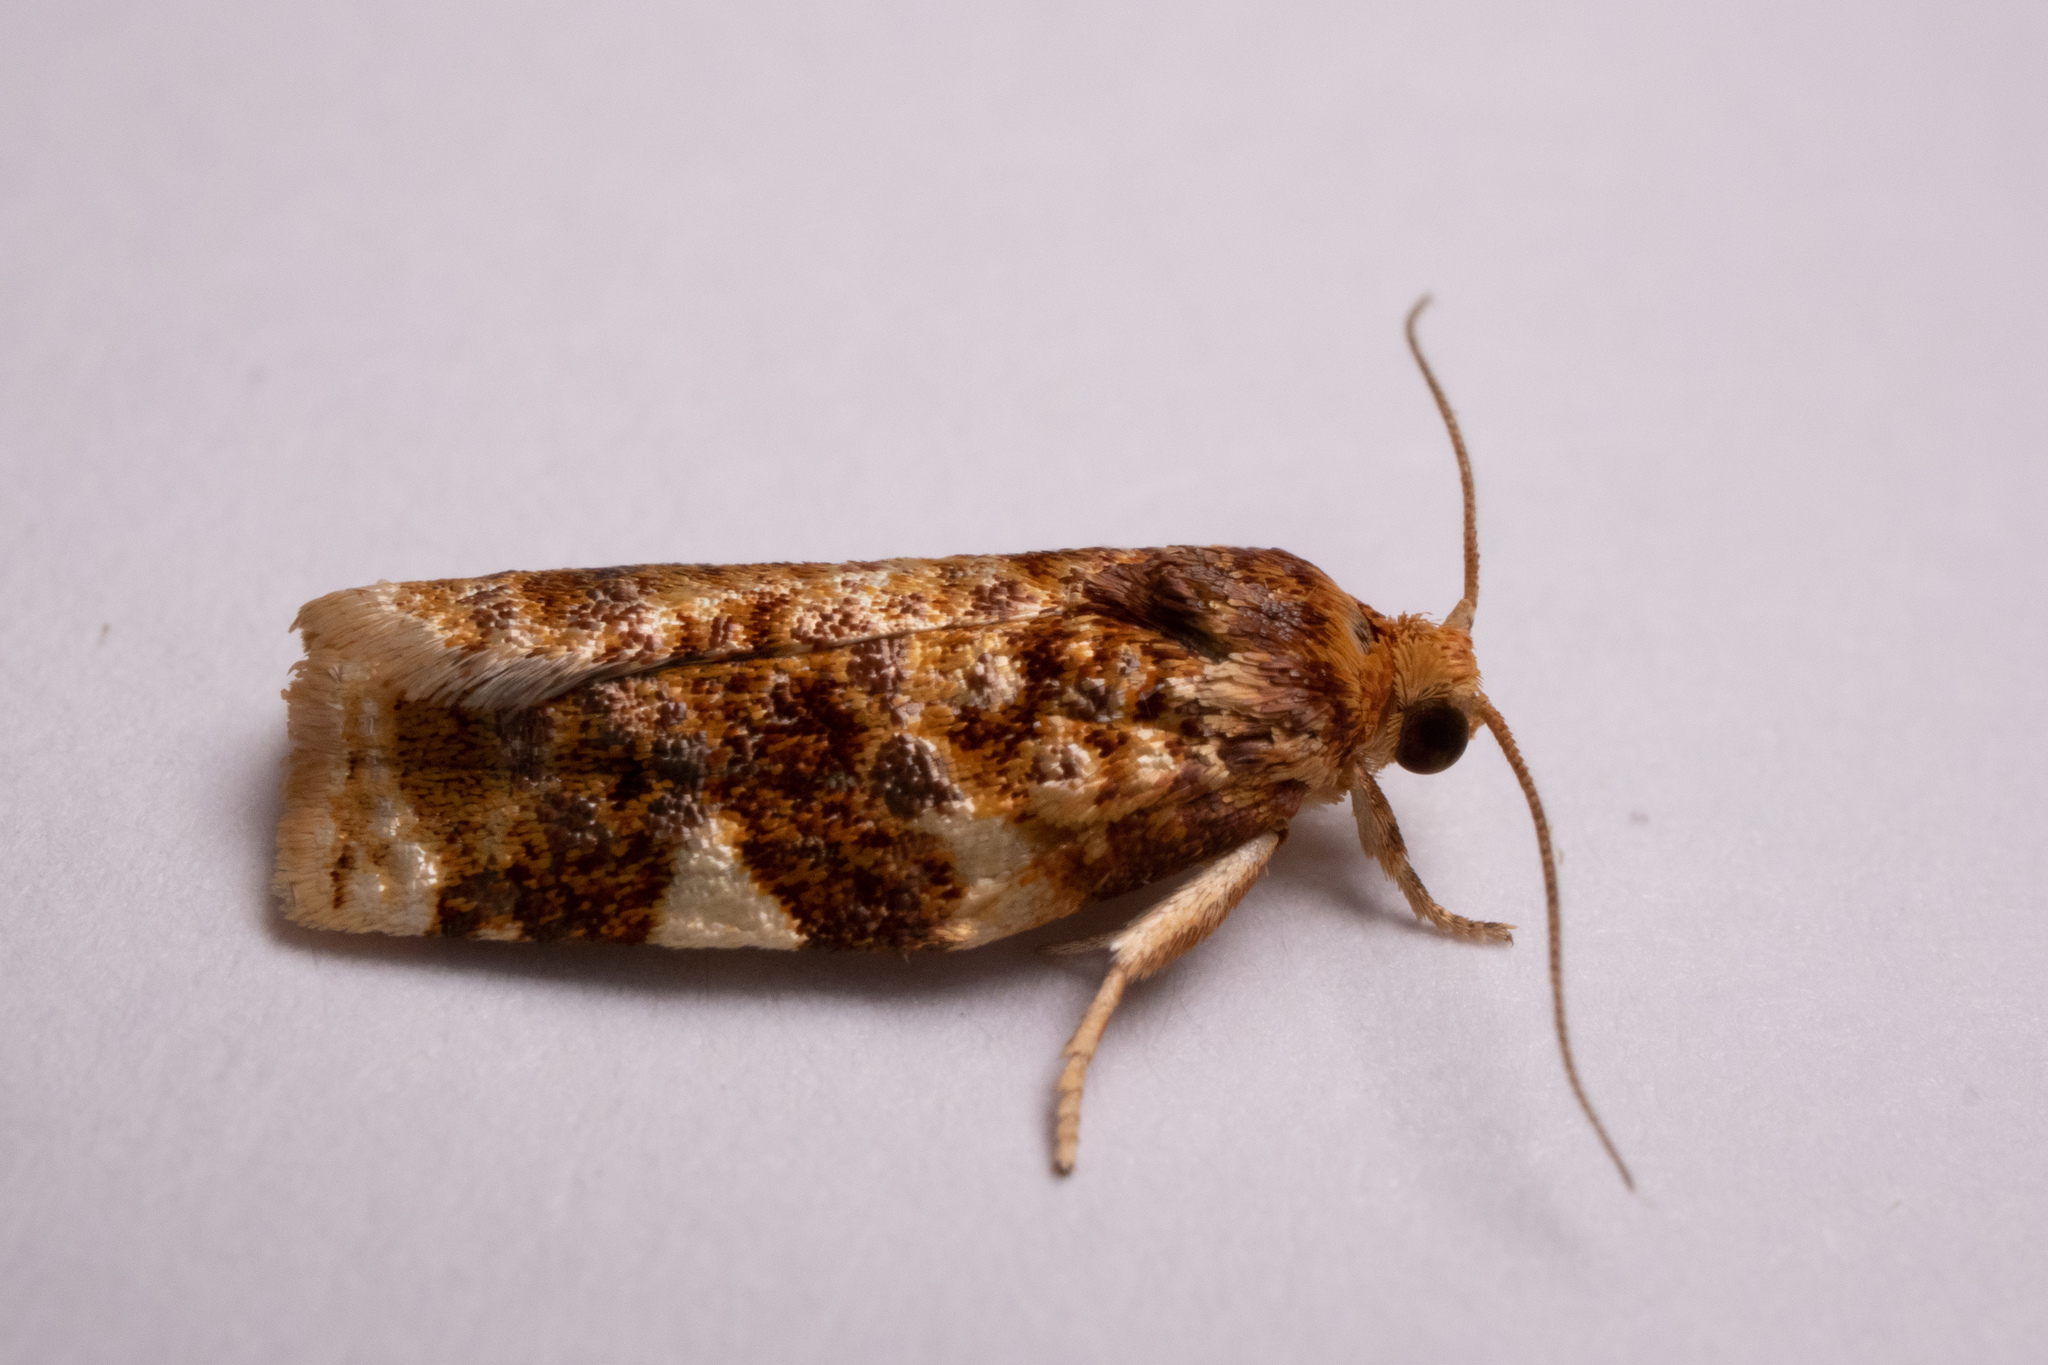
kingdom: Animalia
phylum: Arthropoda
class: Insecta
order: Lepidoptera
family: Tortricidae
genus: Archips
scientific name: Archips argyrospila
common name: Fruit-tree leafroller moth
